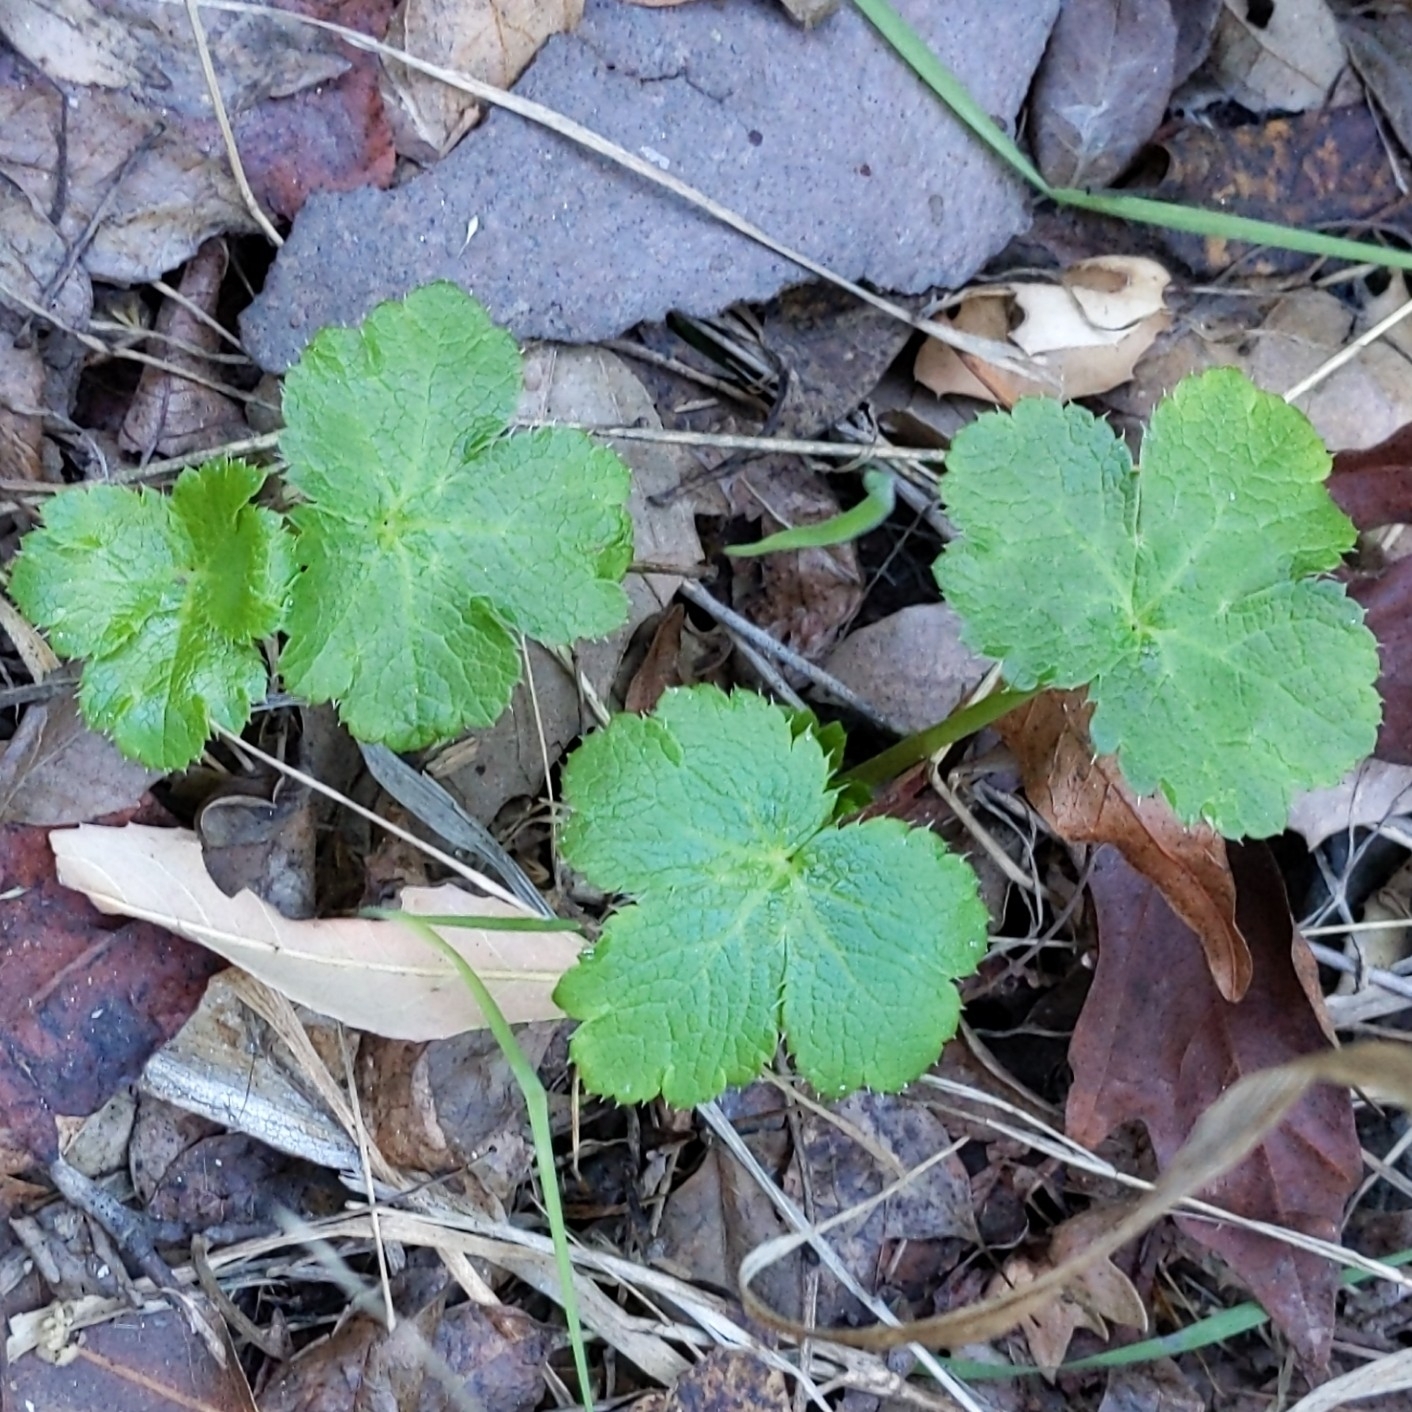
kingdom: Plantae
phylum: Tracheophyta
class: Magnoliopsida
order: Apiales
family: Apiaceae
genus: Sanicula
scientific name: Sanicula crassicaulis
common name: Western snakeroot
